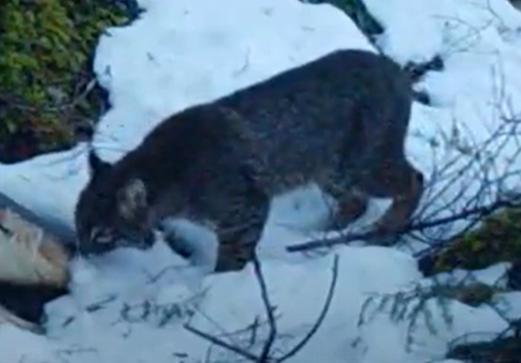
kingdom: Animalia
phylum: Chordata
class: Mammalia
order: Carnivora
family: Felidae
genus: Lynx
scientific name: Lynx rufus
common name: Bobcat
